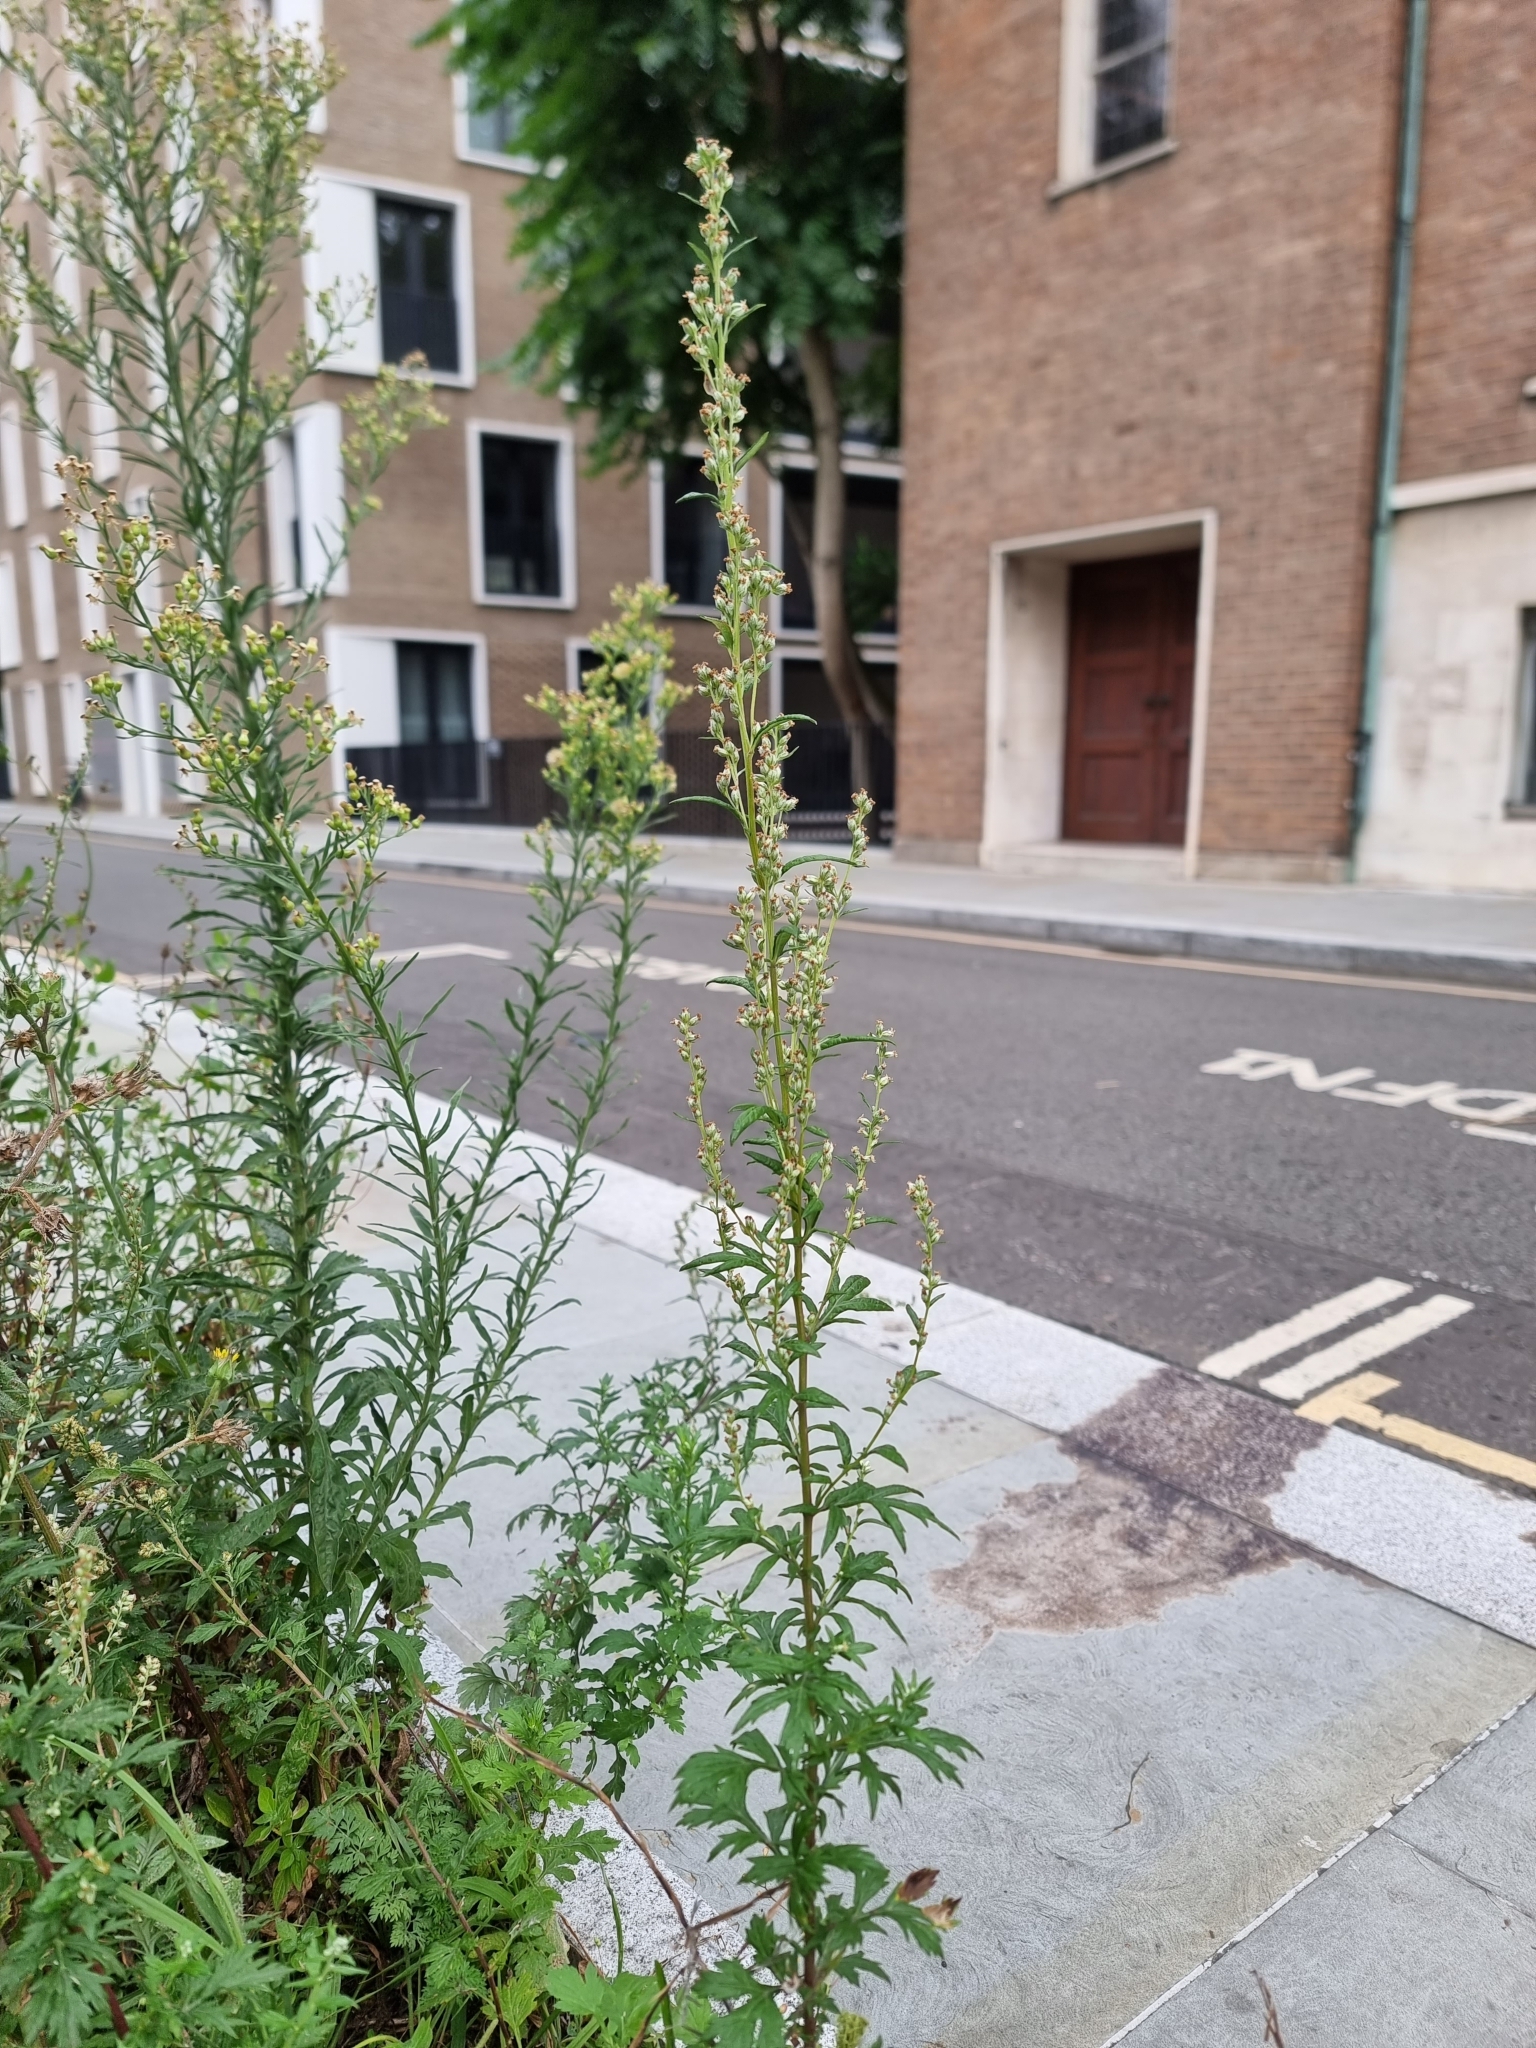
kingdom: Plantae
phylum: Tracheophyta
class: Magnoliopsida
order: Asterales
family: Asteraceae
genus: Artemisia
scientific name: Artemisia vulgaris
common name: Mugwort
